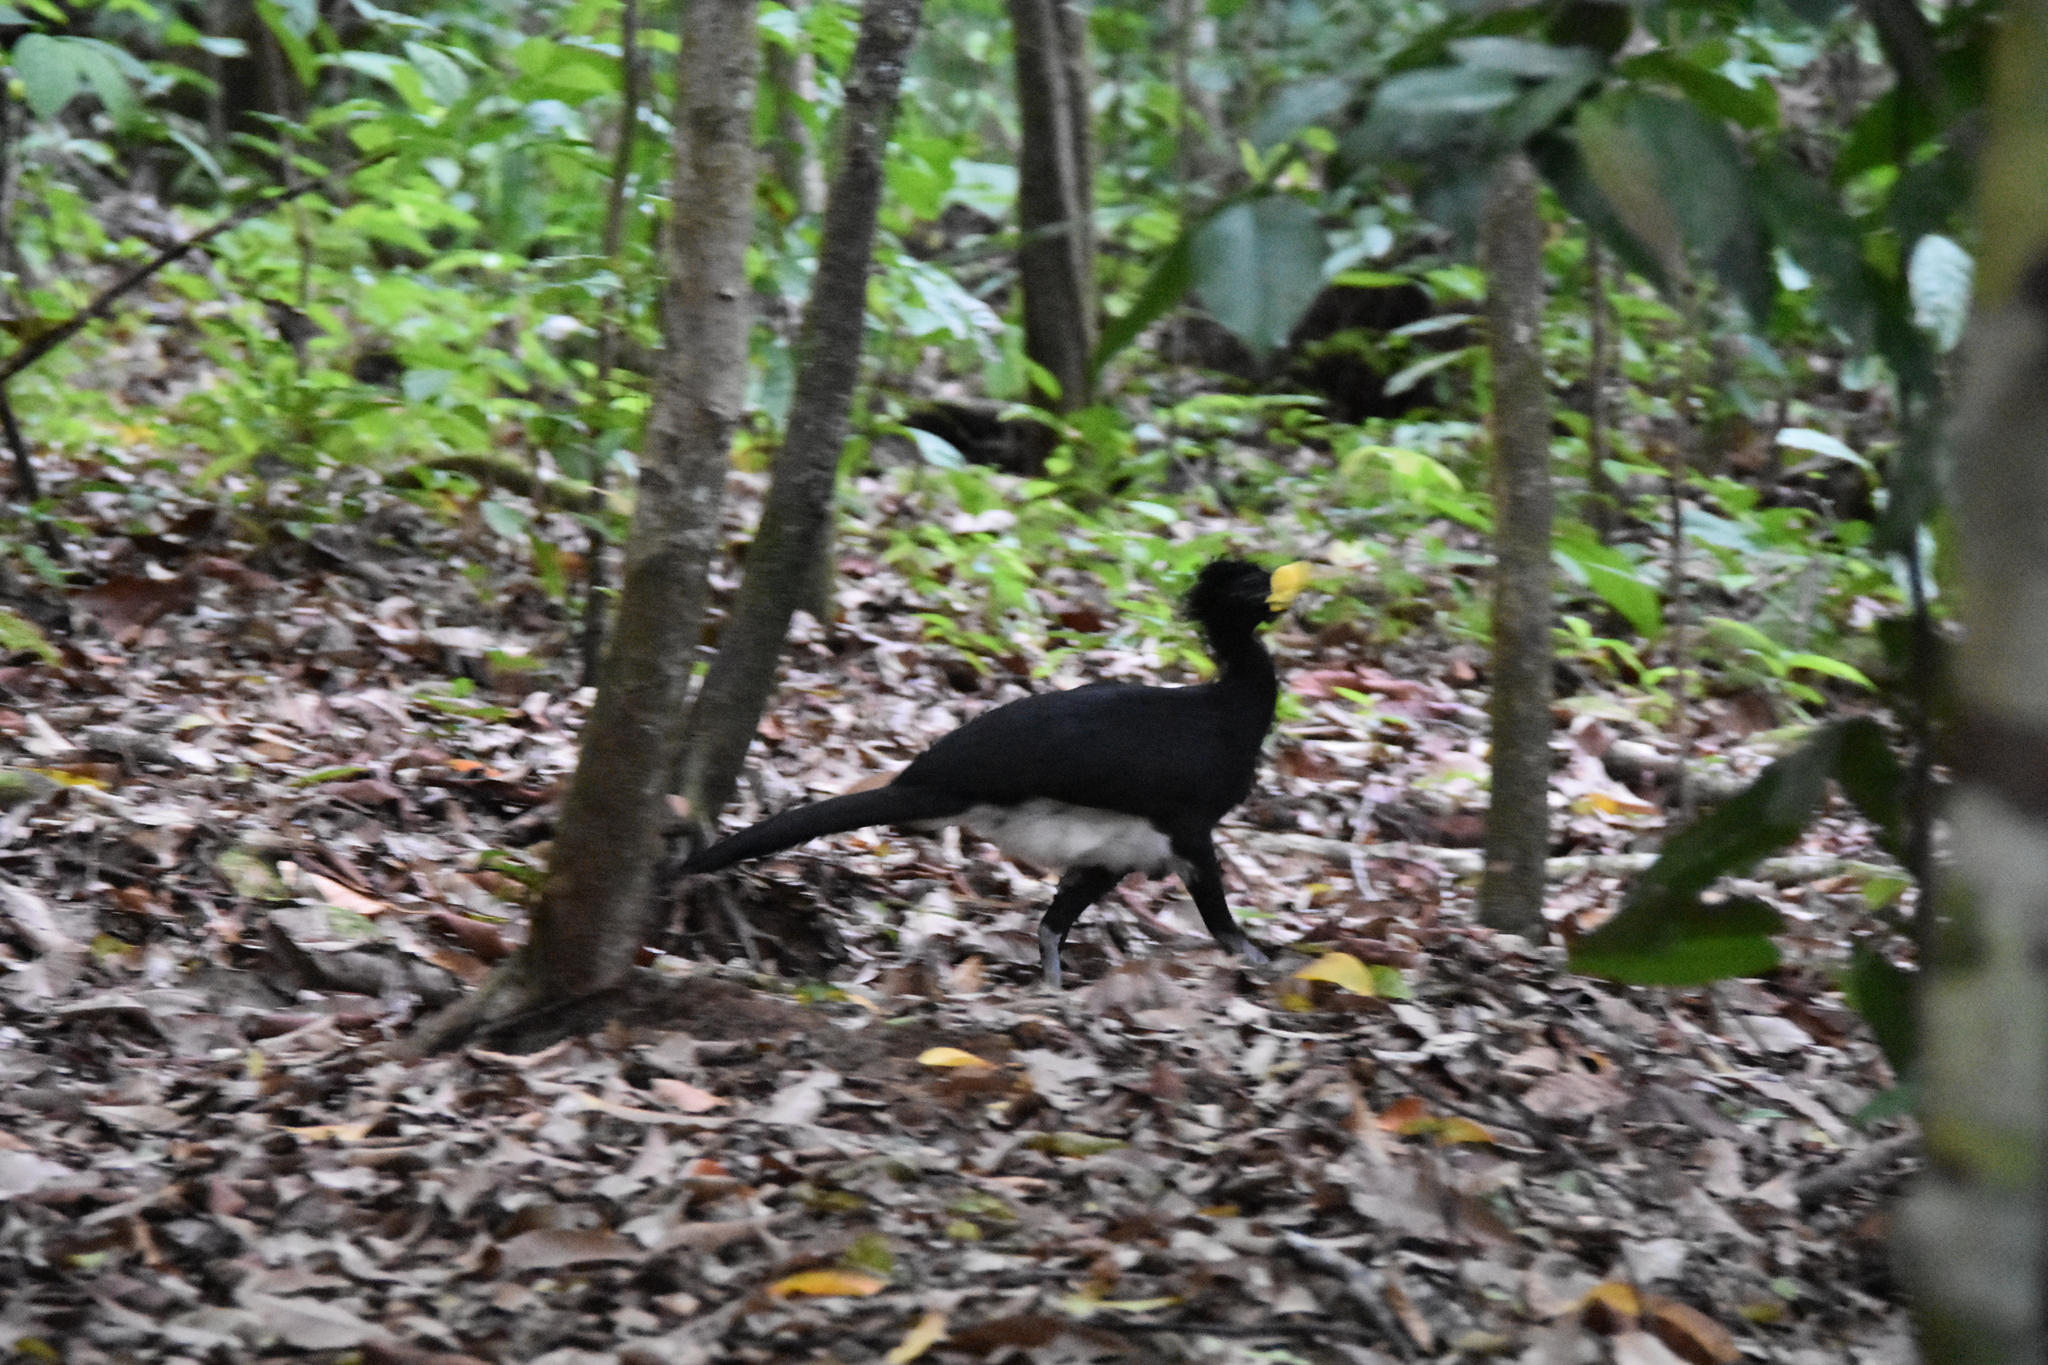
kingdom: Animalia
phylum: Chordata
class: Aves
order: Galliformes
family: Cracidae
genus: Crax
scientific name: Crax rubra
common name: Great curassow
